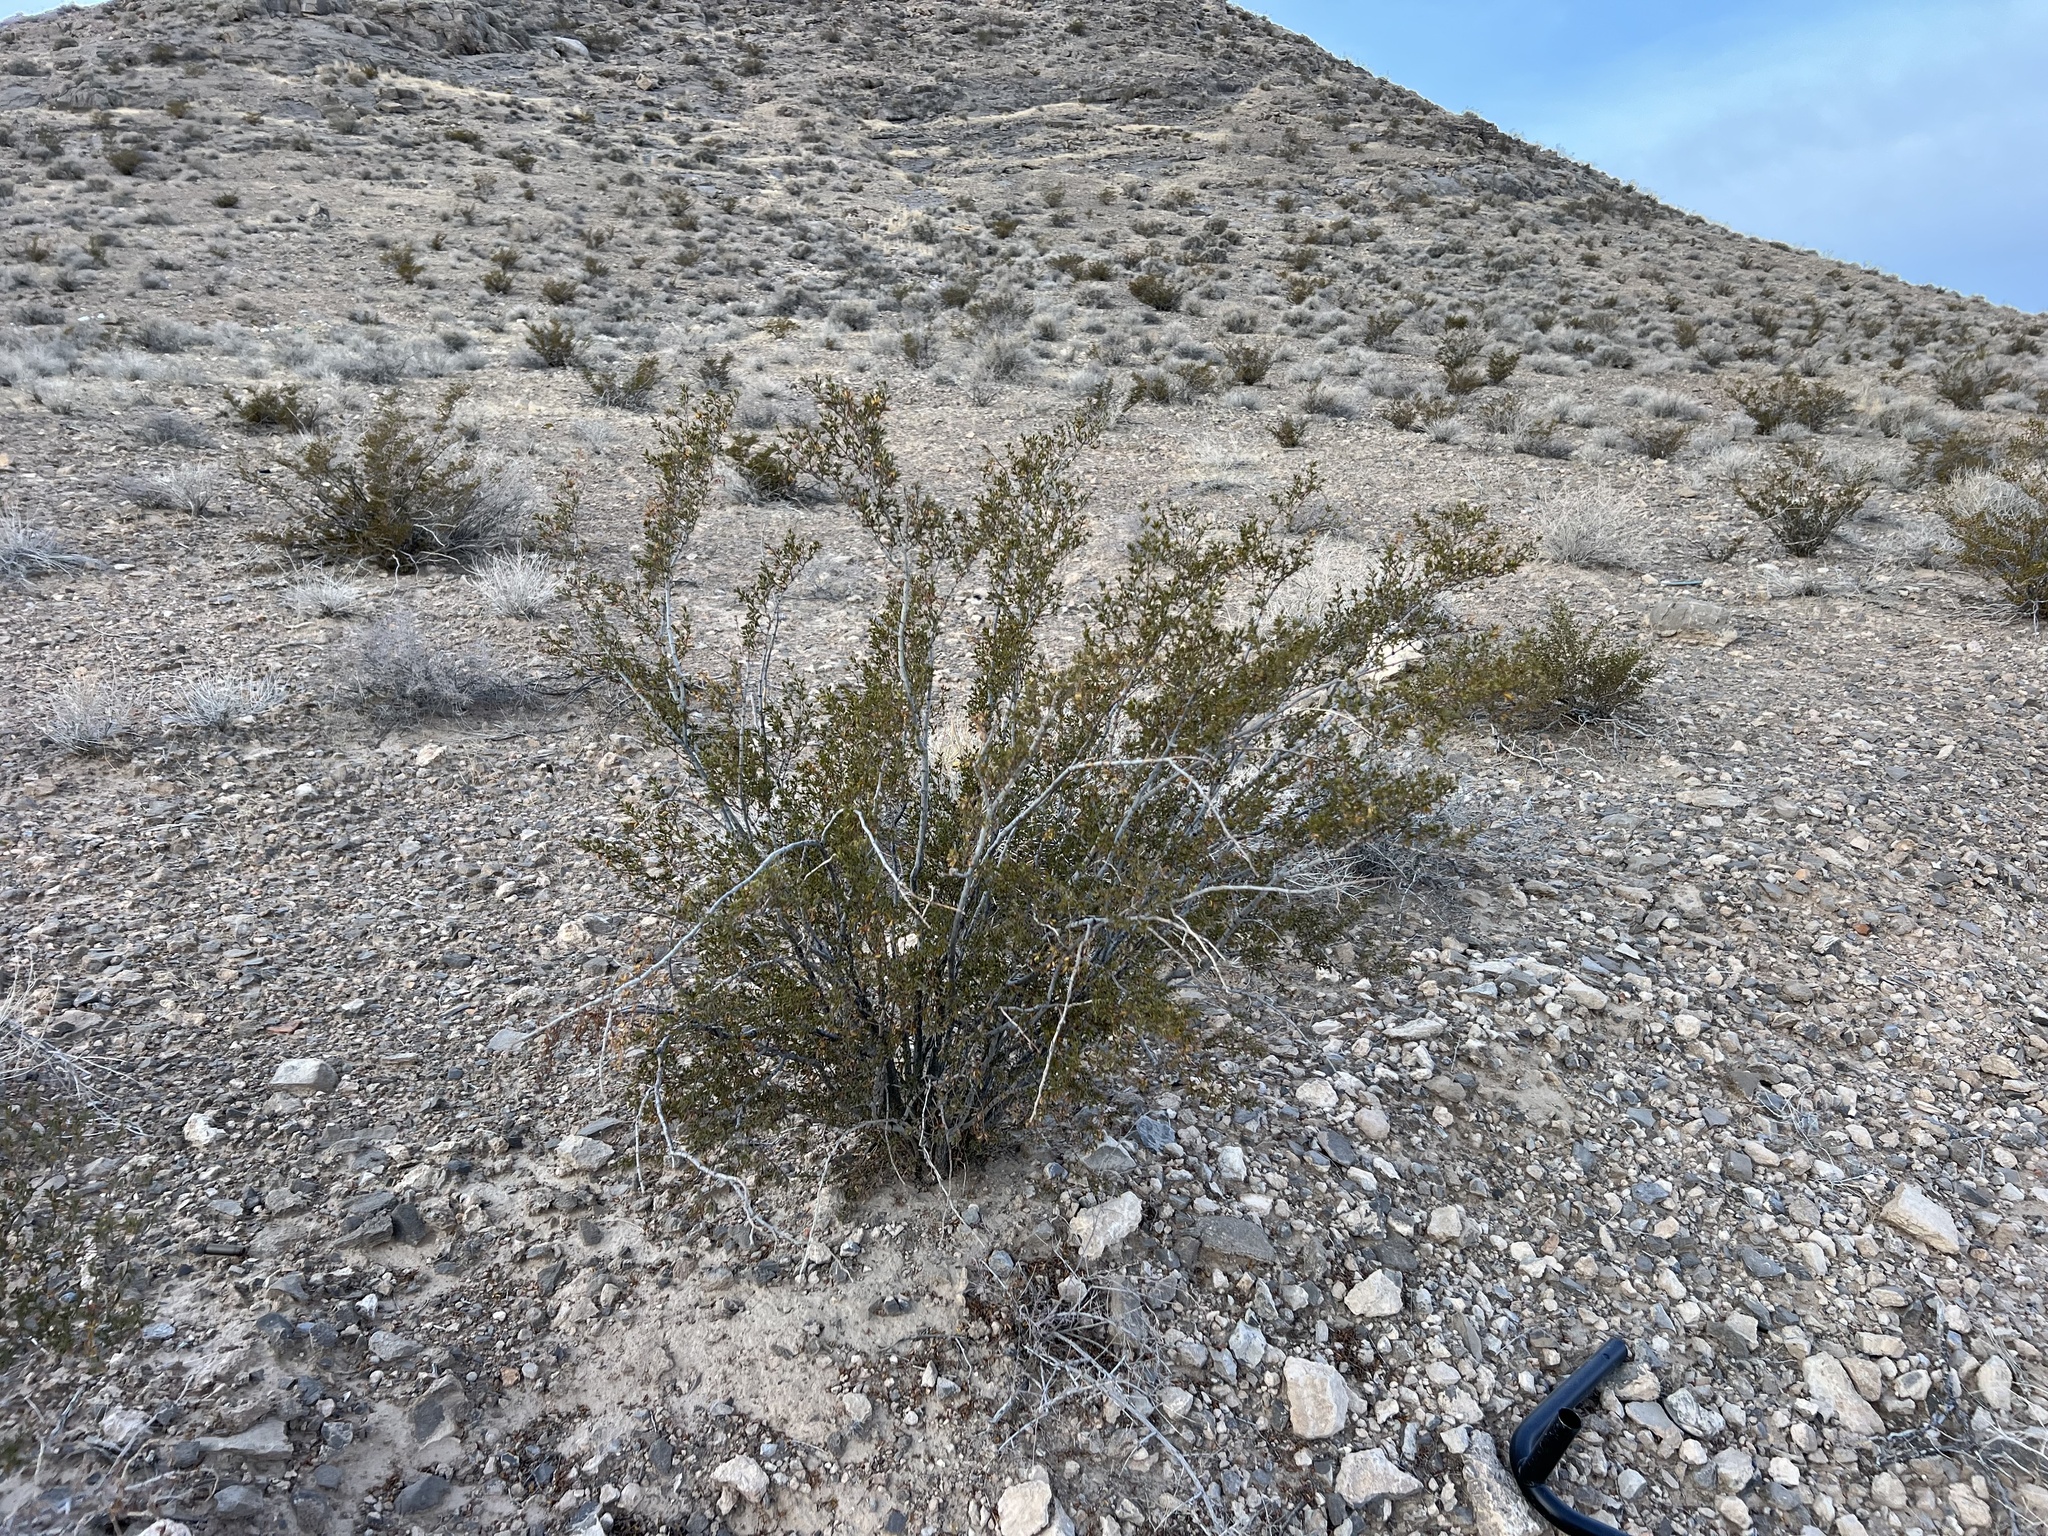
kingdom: Plantae
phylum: Tracheophyta
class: Magnoliopsida
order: Zygophyllales
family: Zygophyllaceae
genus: Larrea
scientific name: Larrea tridentata
